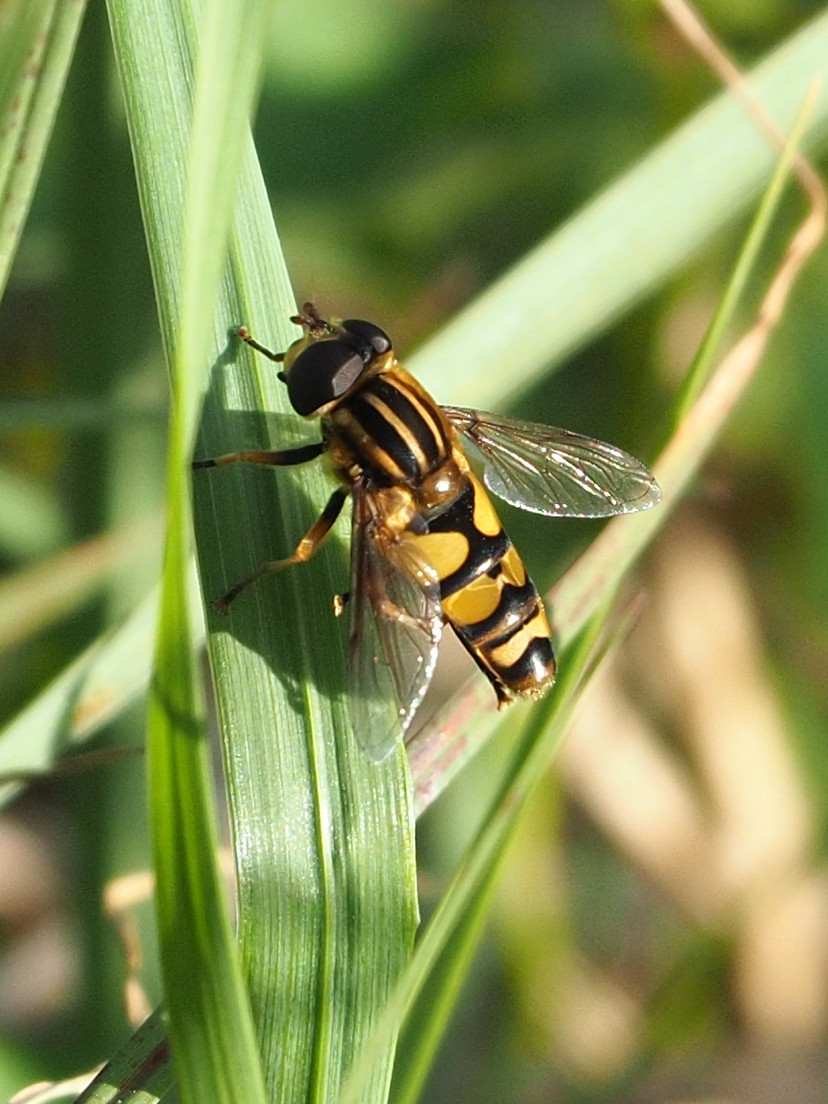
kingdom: Animalia
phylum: Arthropoda
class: Insecta
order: Diptera
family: Syrphidae
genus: Helophilus
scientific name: Helophilus fasciatus
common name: Narrow-headed marsh fly
